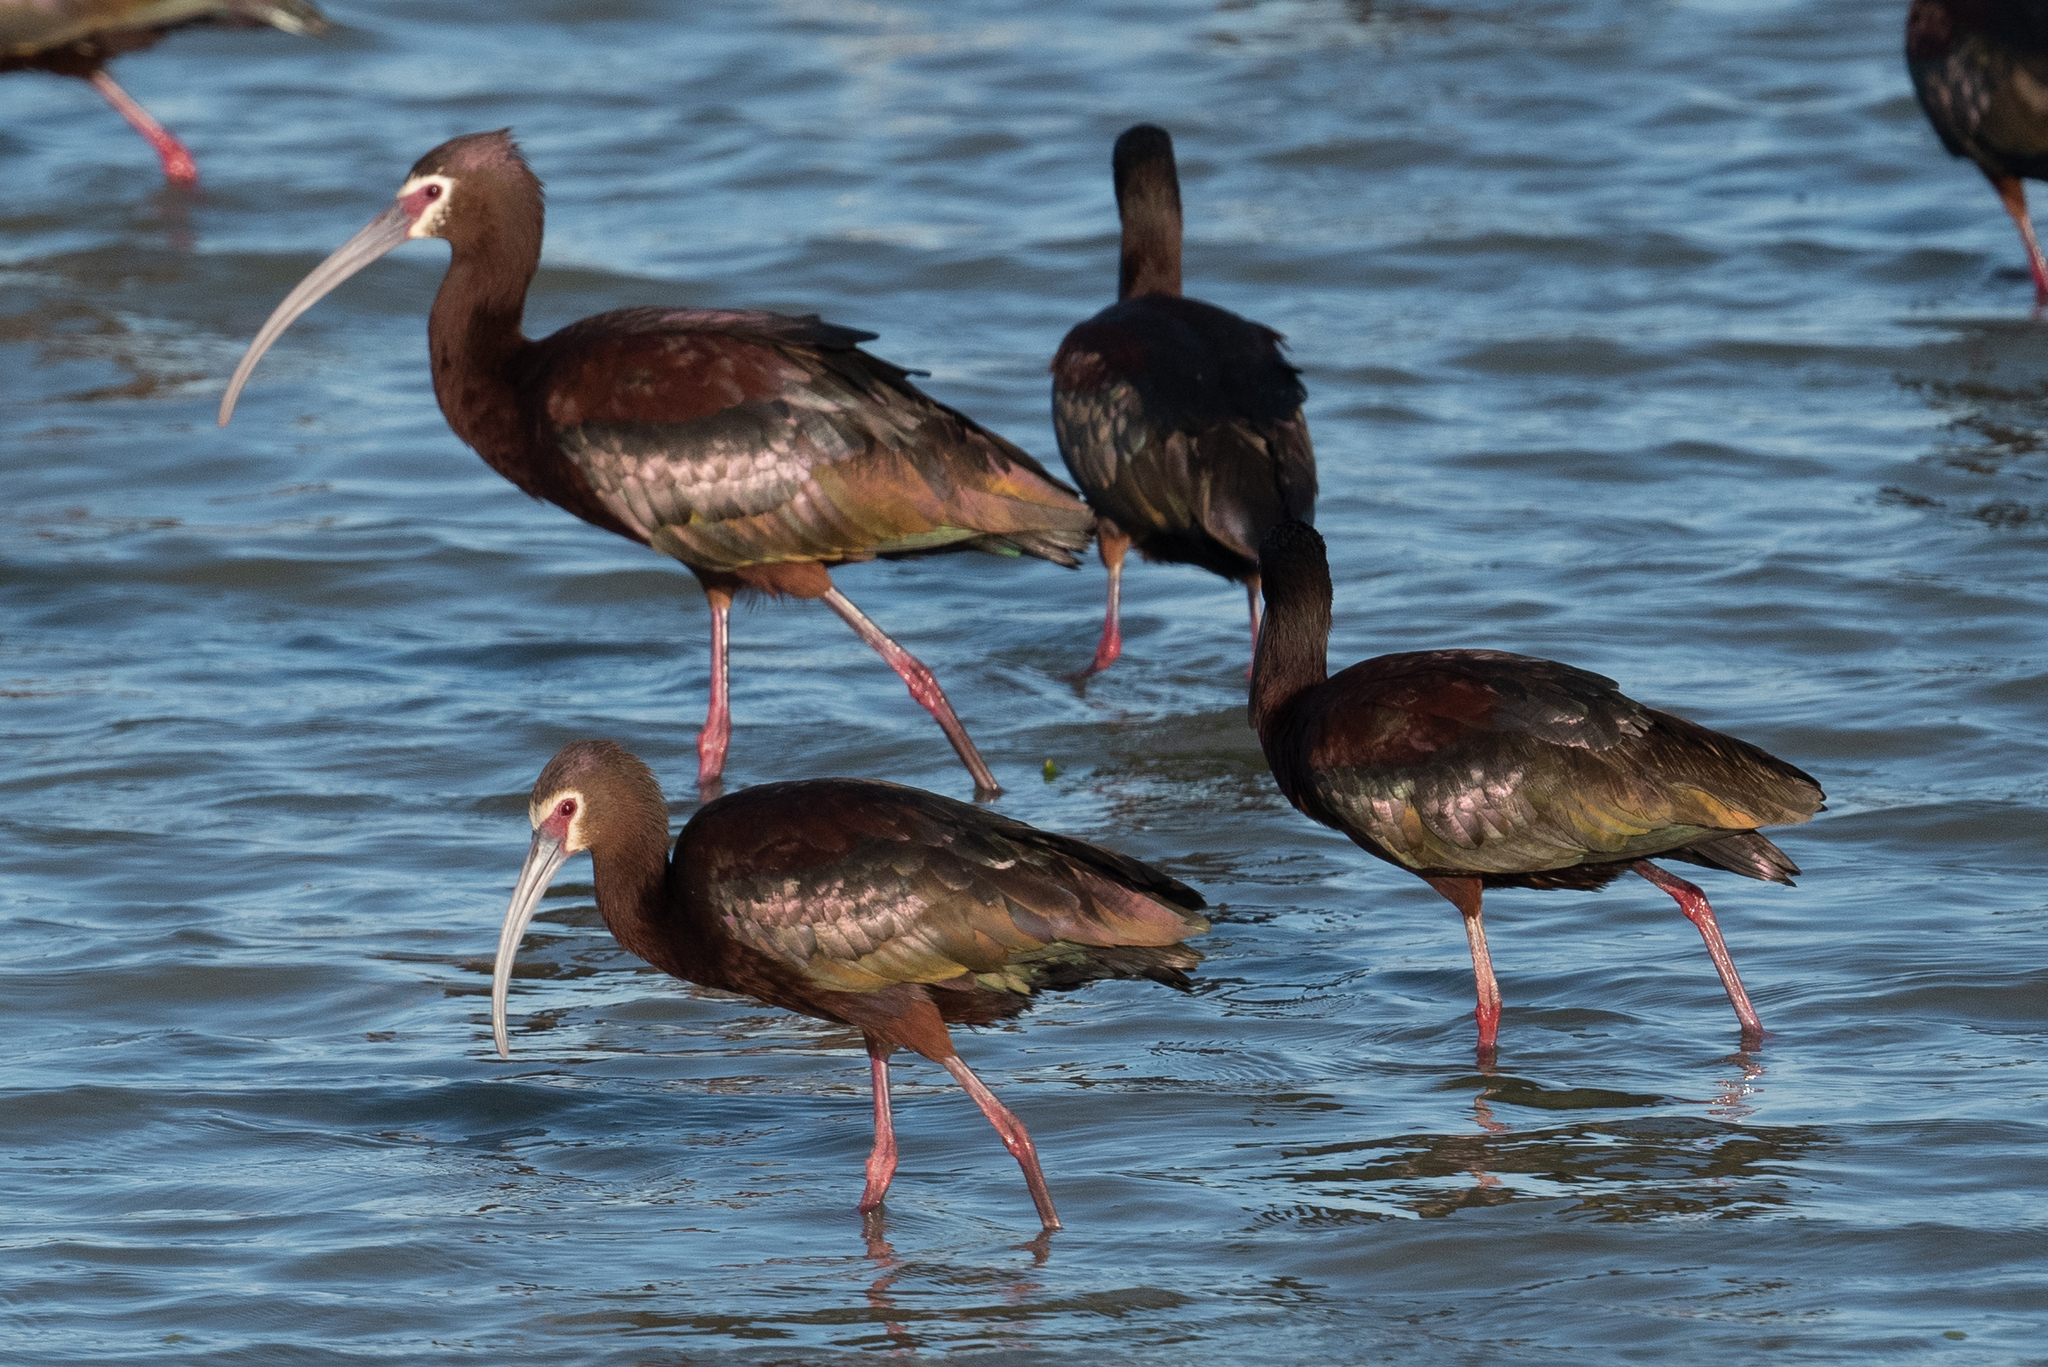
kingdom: Animalia
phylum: Chordata
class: Aves
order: Pelecaniformes
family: Threskiornithidae
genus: Plegadis
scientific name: Plegadis chihi
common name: White-faced ibis
